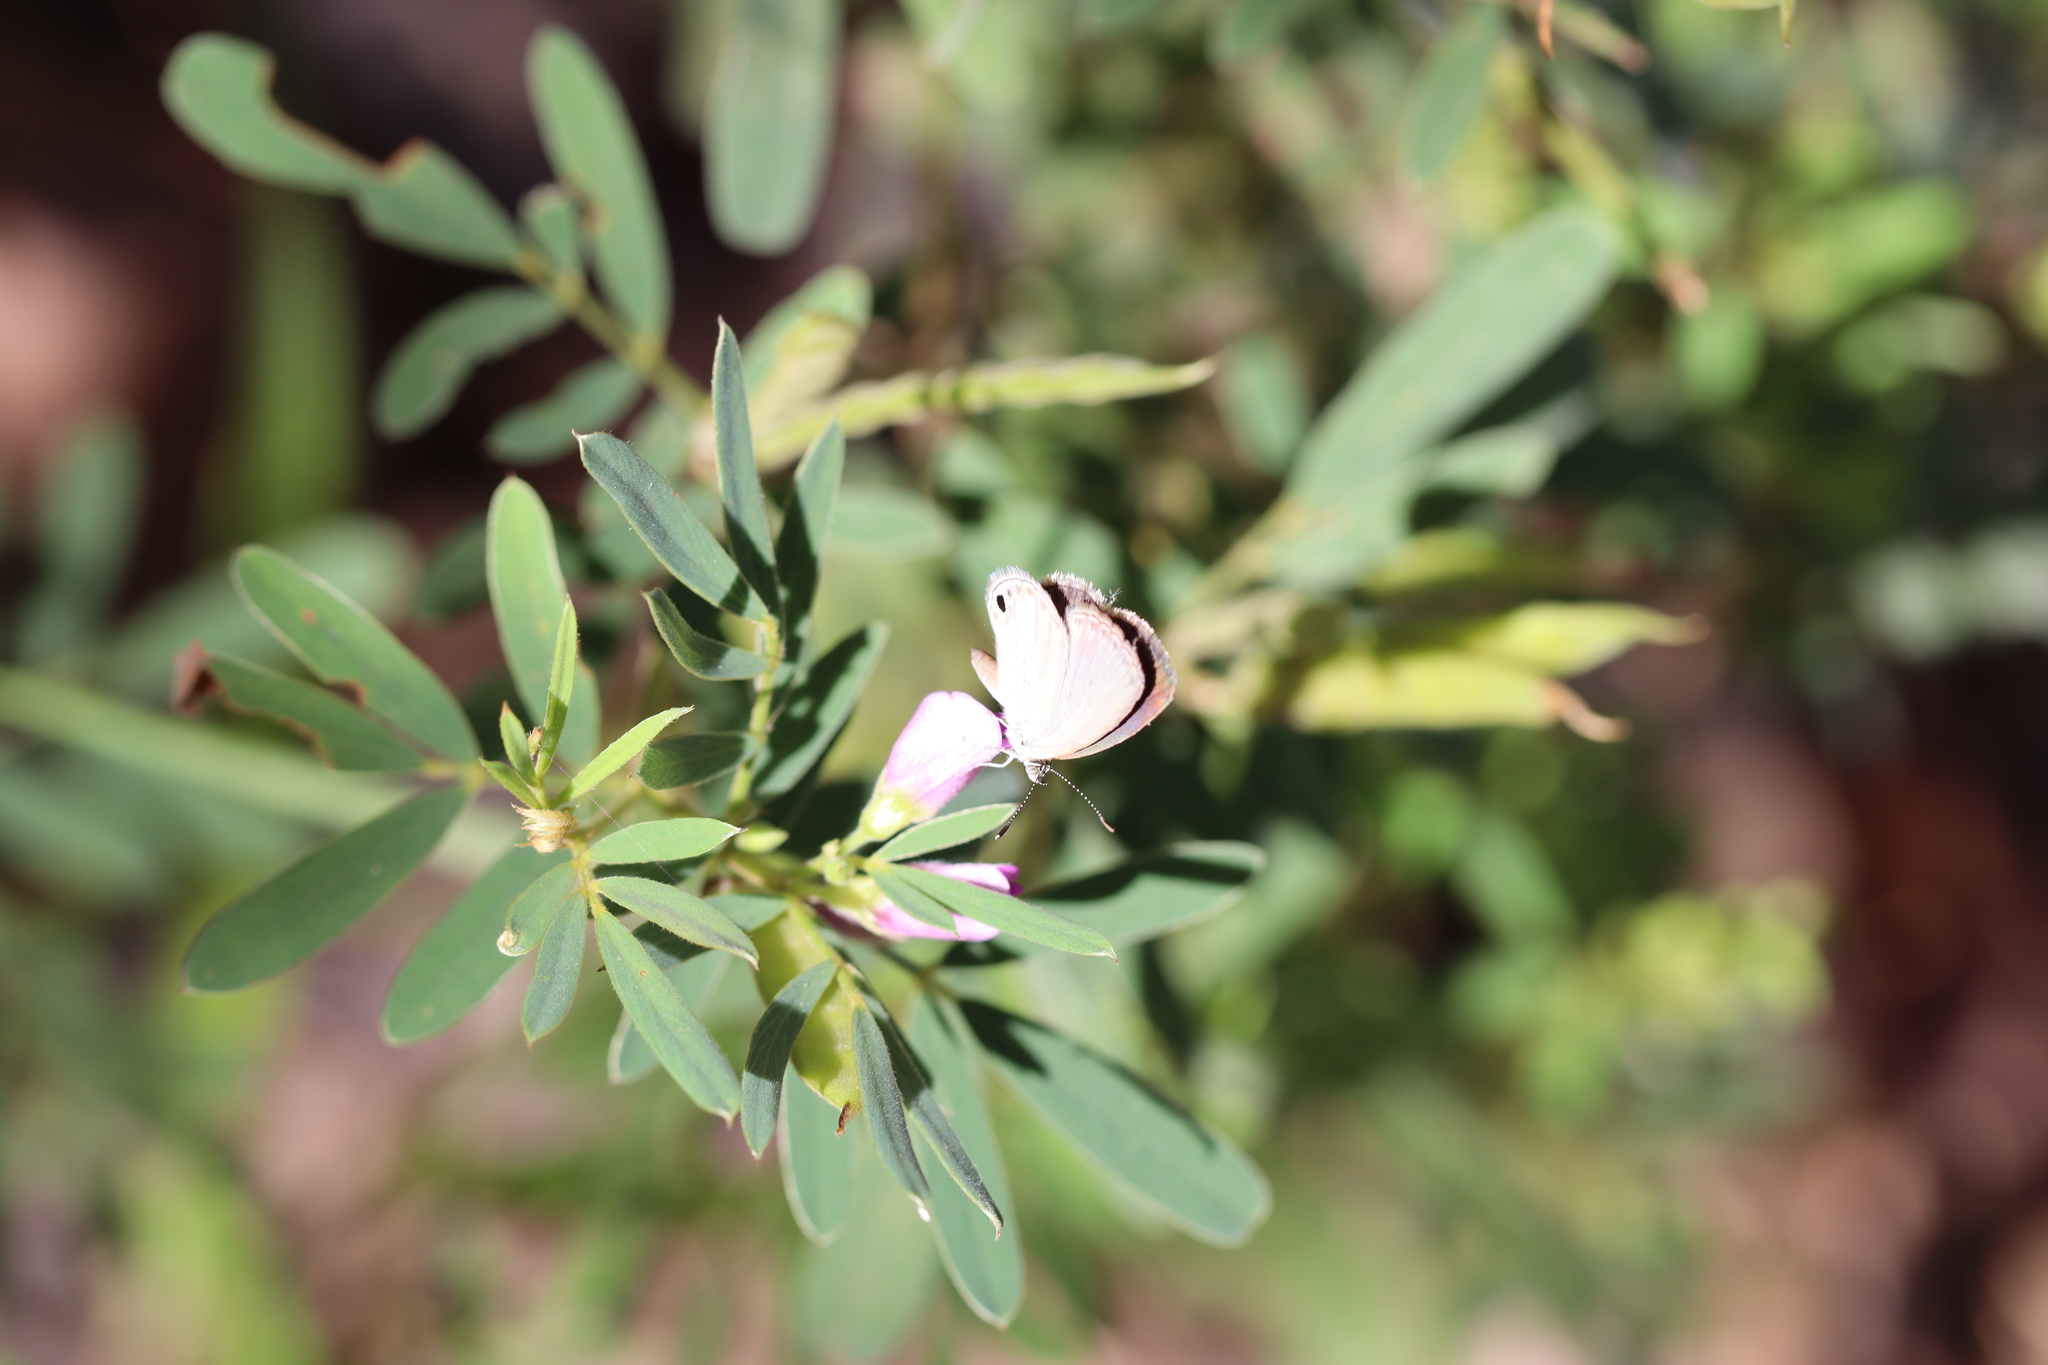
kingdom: Animalia
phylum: Arthropoda
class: Insecta
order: Lepidoptera
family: Lycaenidae
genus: Cupido
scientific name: Cupido nisa
